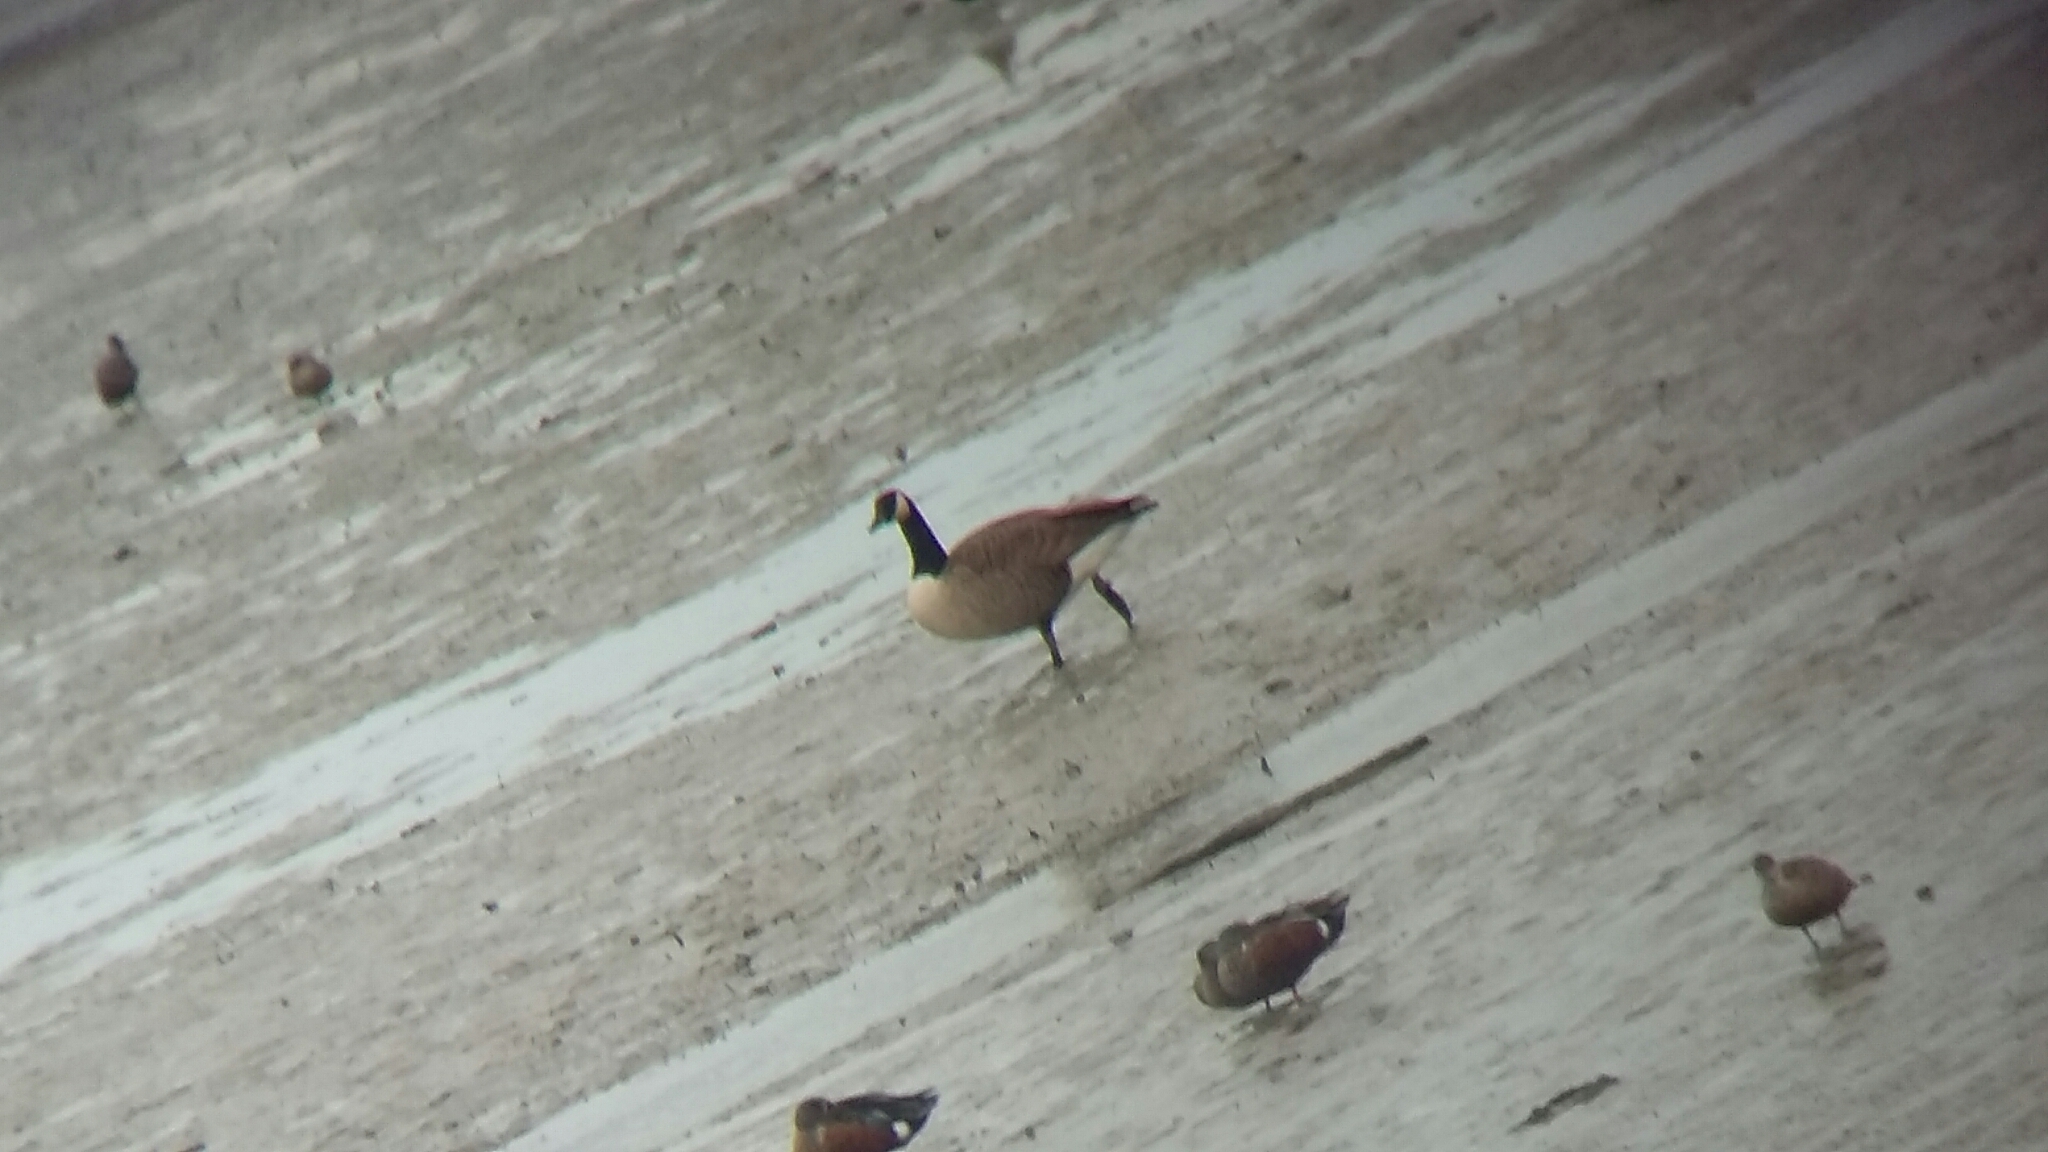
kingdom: Animalia
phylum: Chordata
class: Aves
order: Anseriformes
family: Anatidae
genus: Branta
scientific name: Branta canadensis
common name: Canada goose
